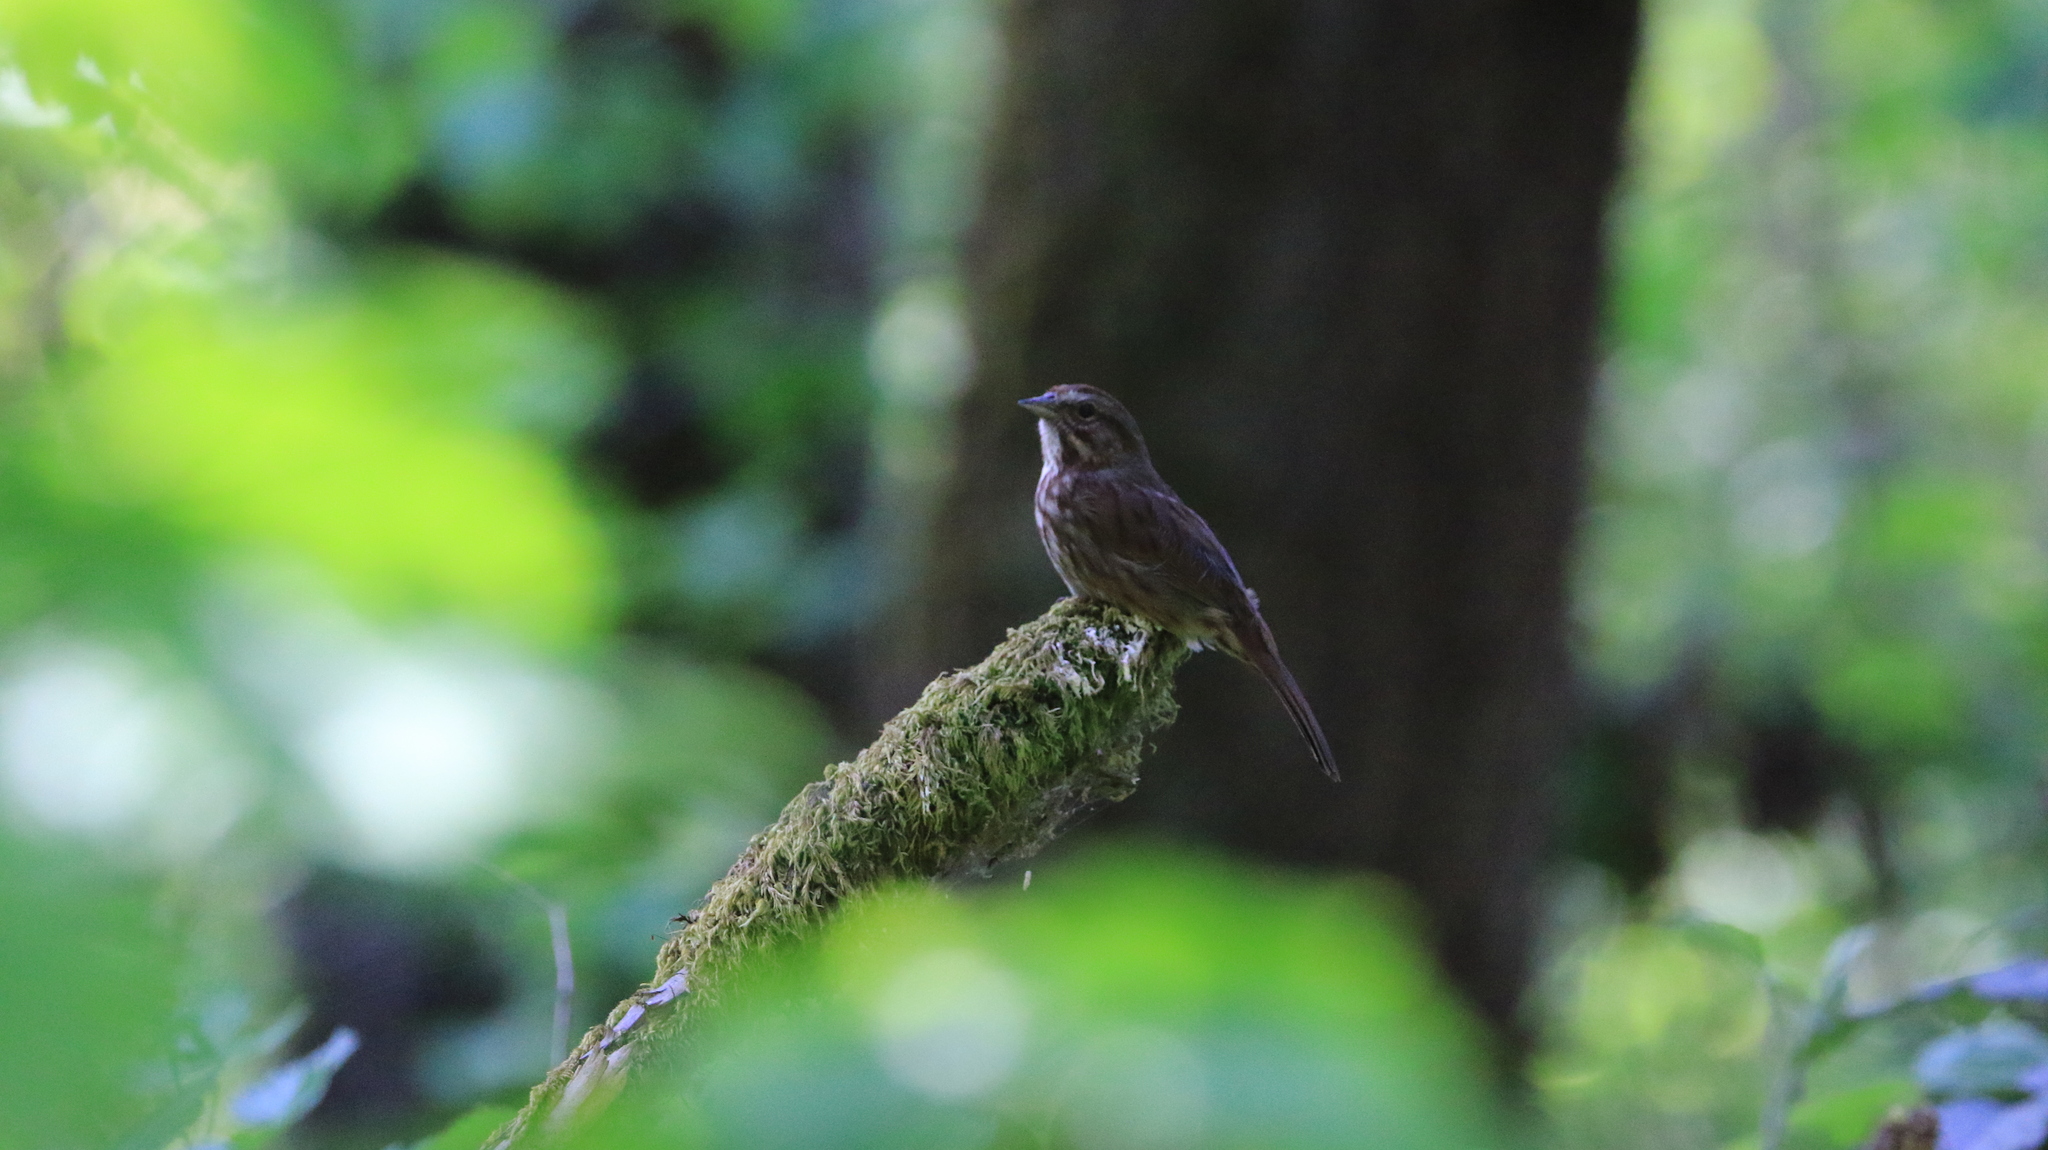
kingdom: Animalia
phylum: Chordata
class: Aves
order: Passeriformes
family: Passerellidae
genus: Melospiza
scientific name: Melospiza melodia
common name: Song sparrow
